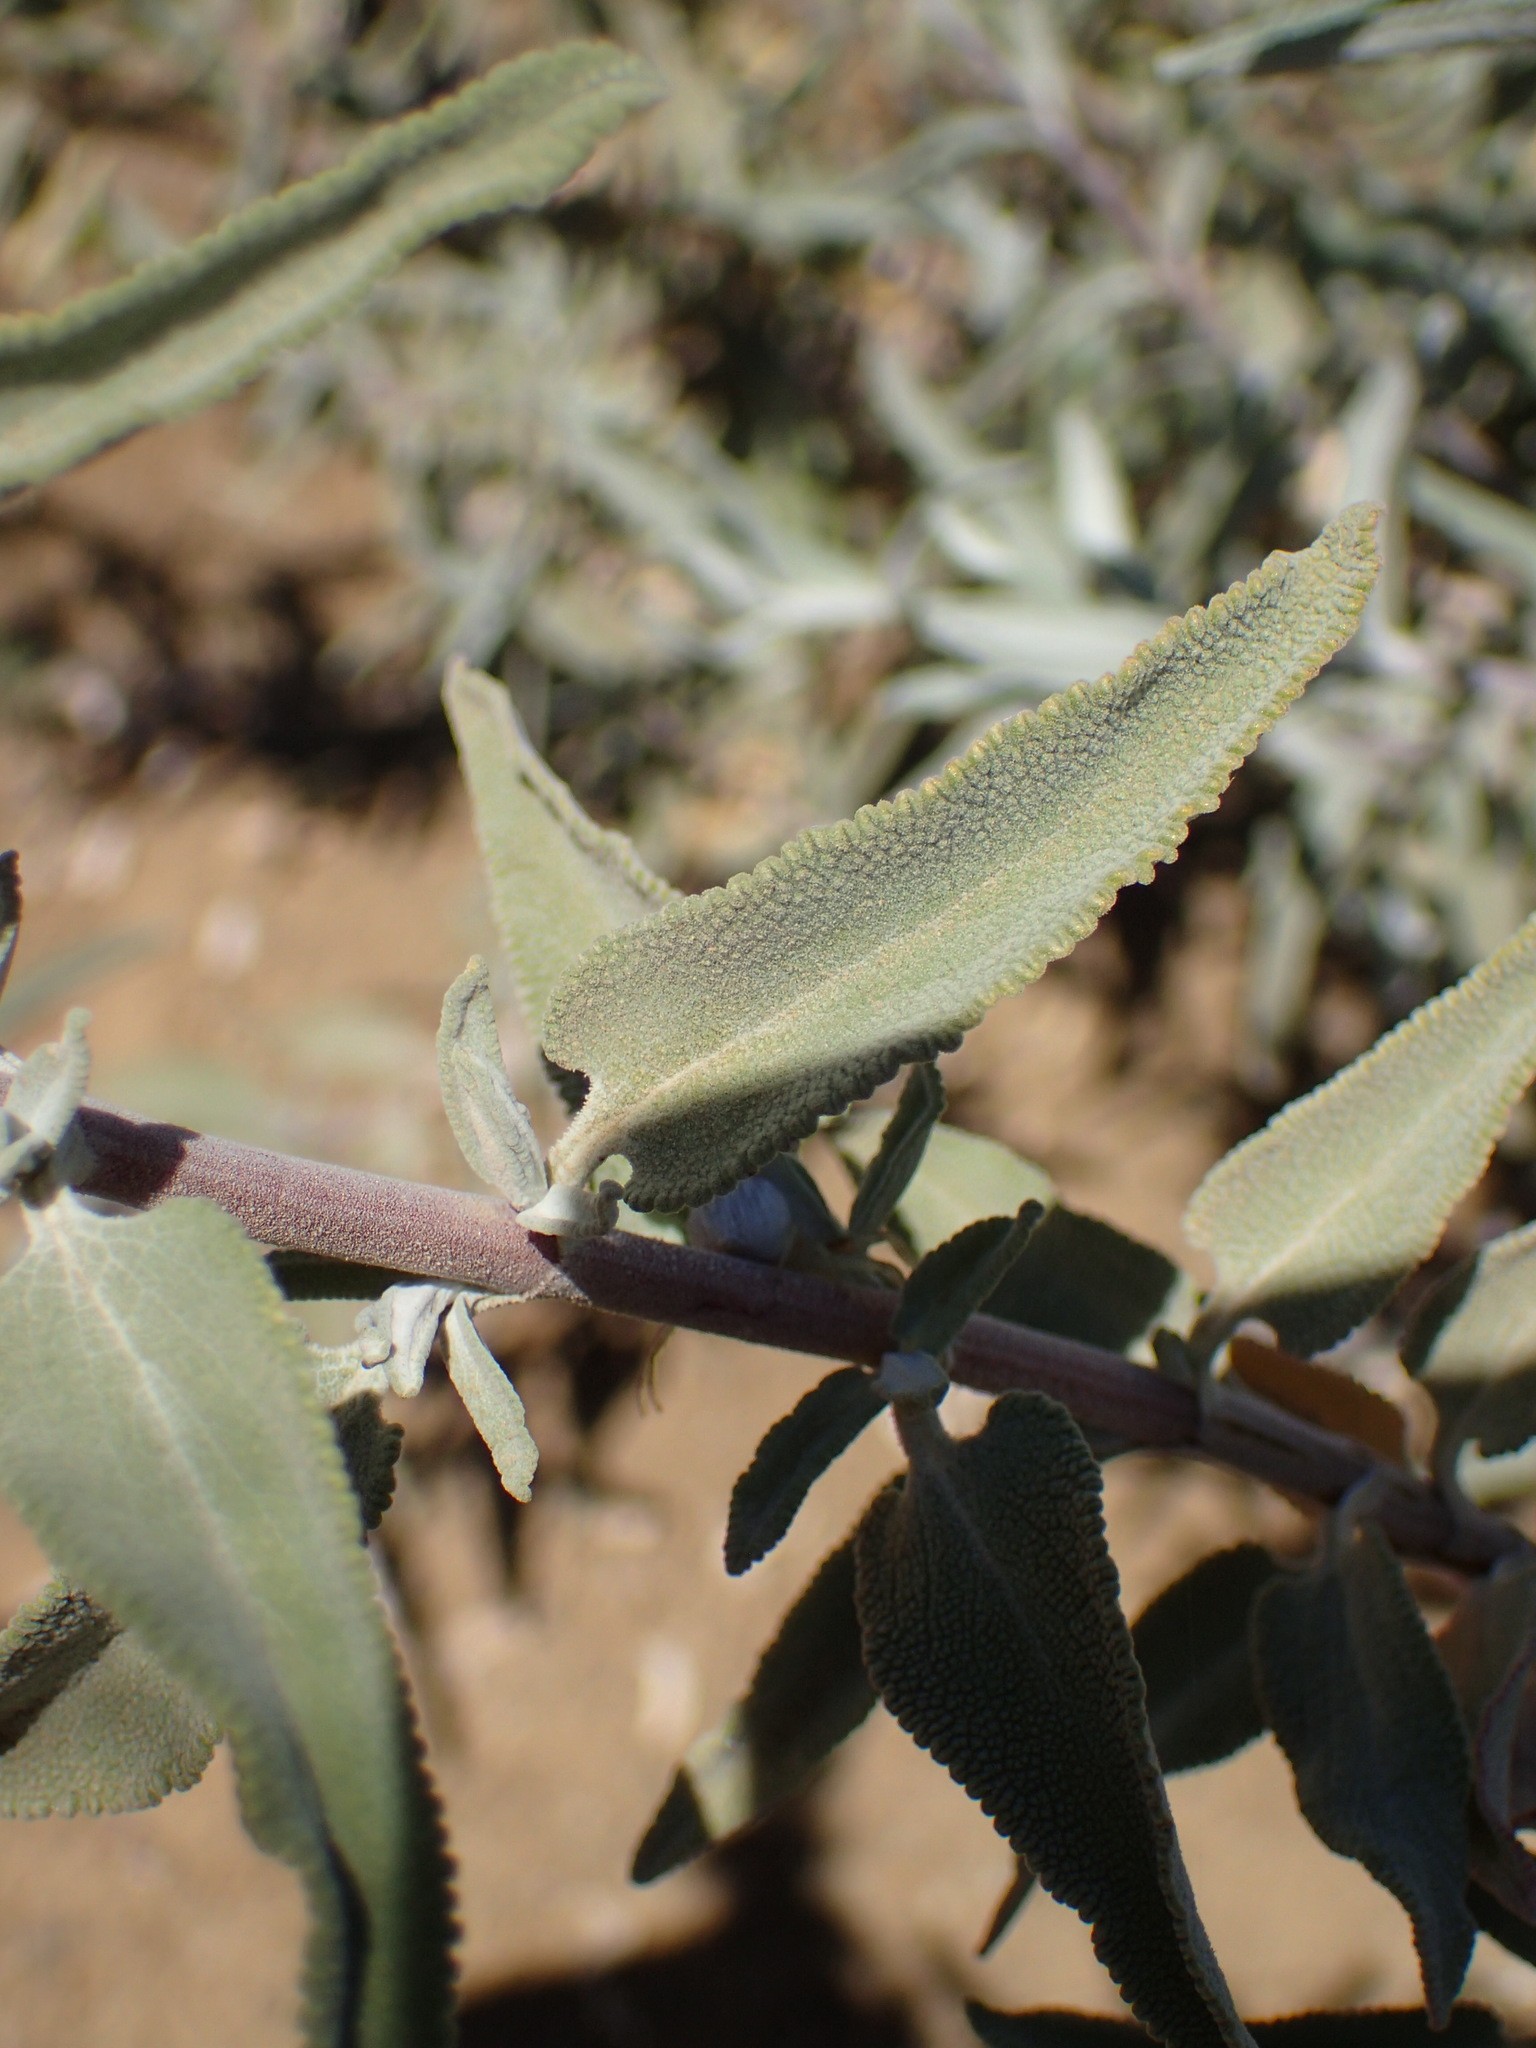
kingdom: Plantae
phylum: Tracheophyta
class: Magnoliopsida
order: Lamiales
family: Lamiaceae
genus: Salvia
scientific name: Salvia leucophylla
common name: Purple sage
